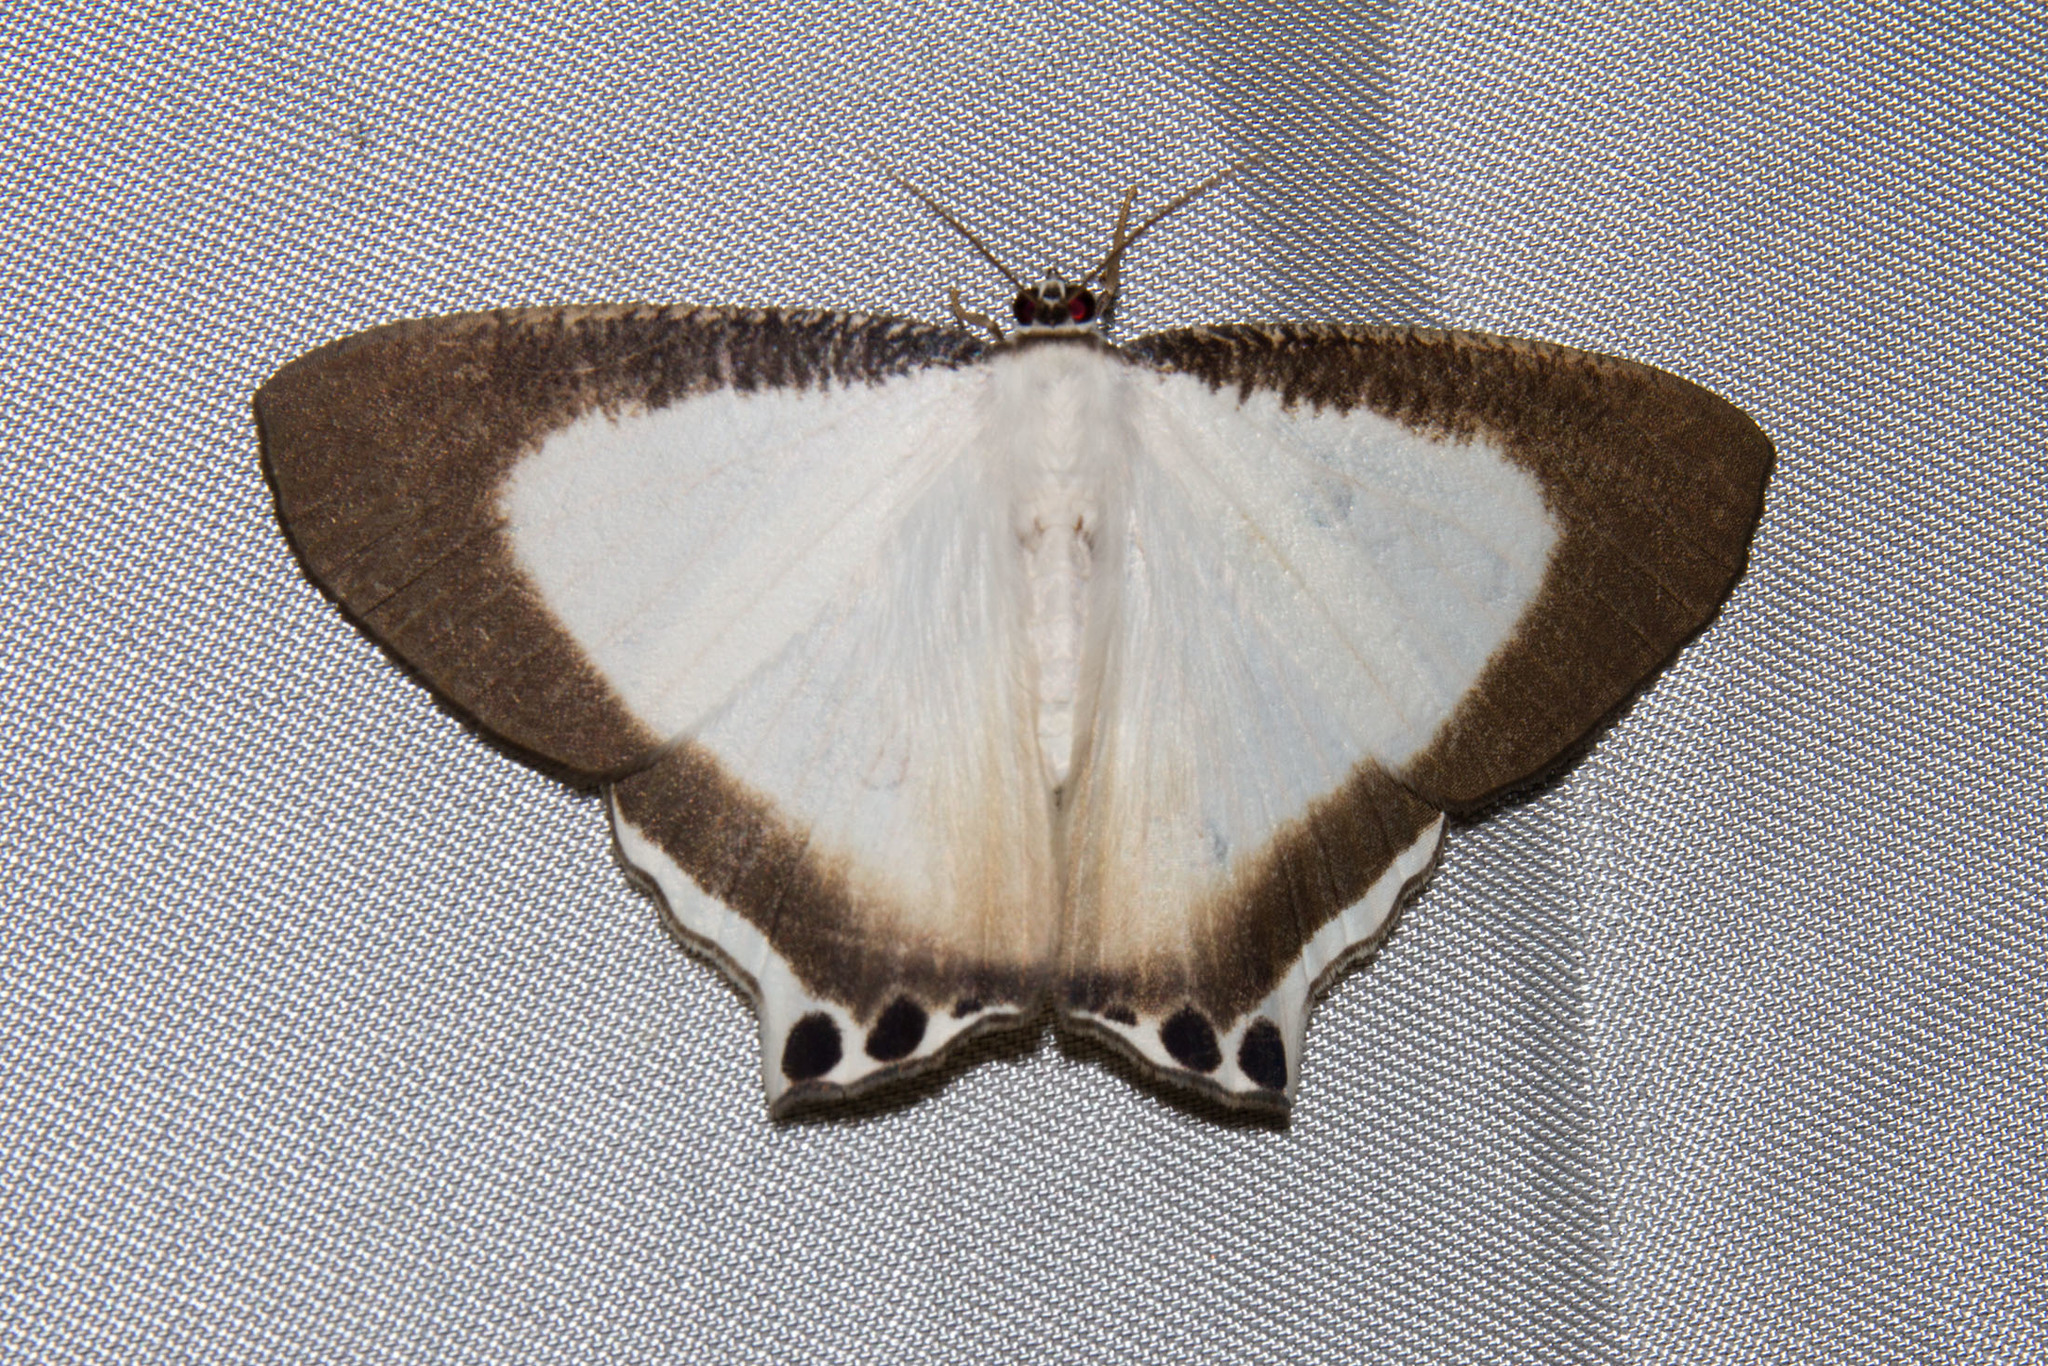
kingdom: Animalia
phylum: Arthropoda
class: Insecta
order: Lepidoptera
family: Uraniidae
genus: Cyphura
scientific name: Cyphura caudiferaria
